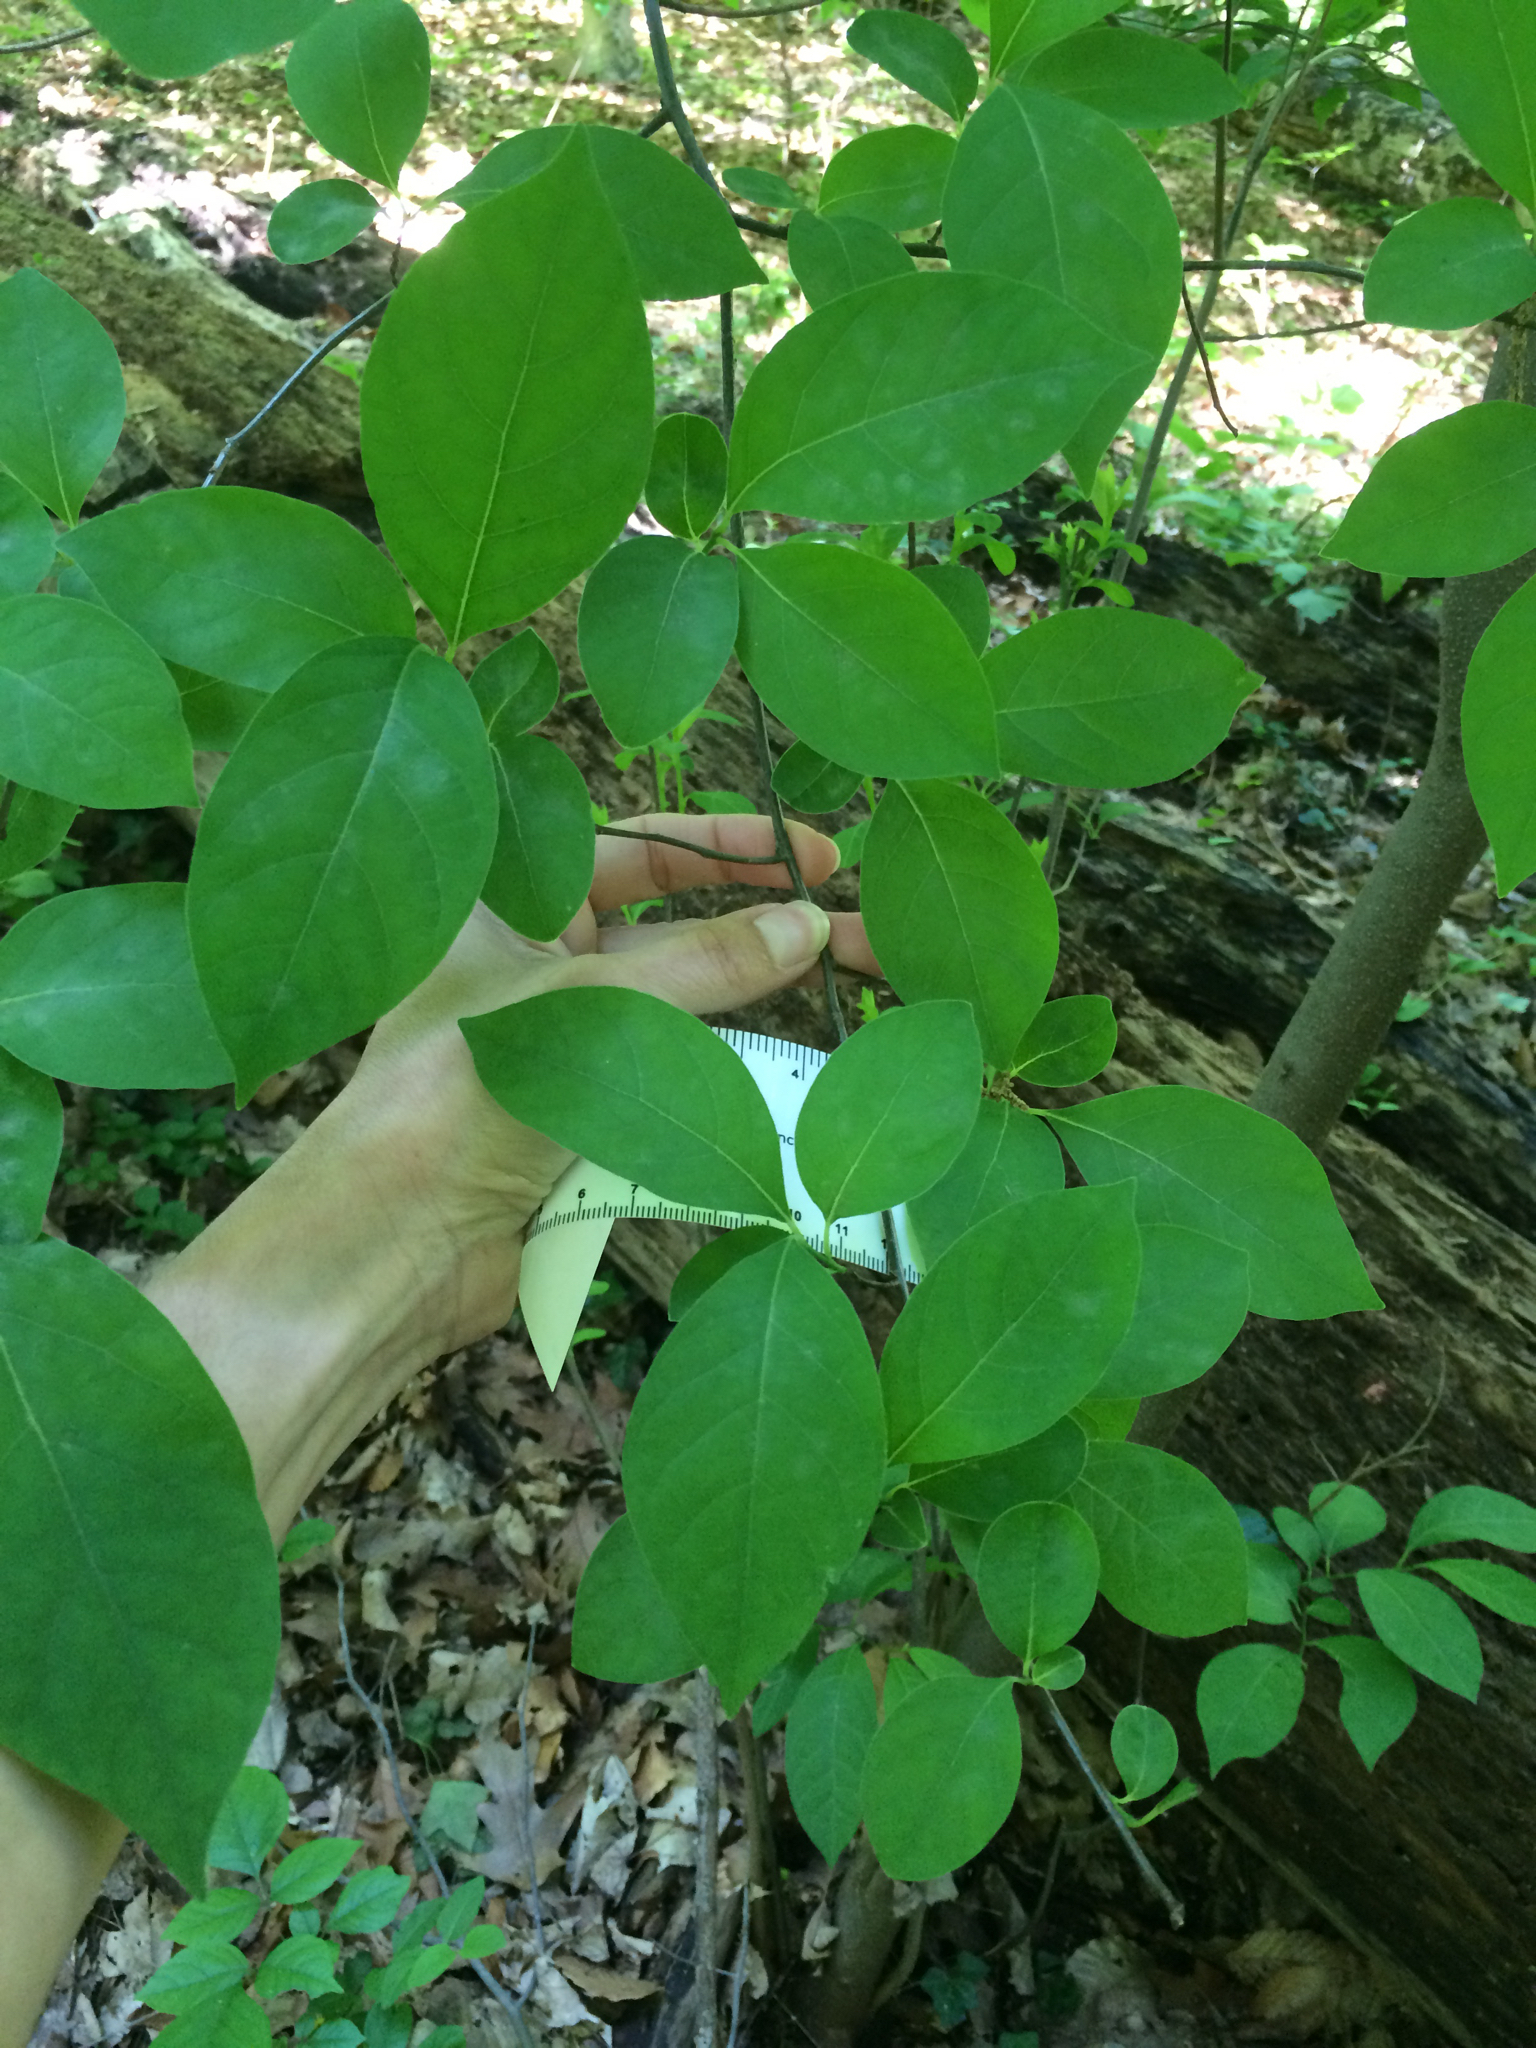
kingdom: Plantae
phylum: Tracheophyta
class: Magnoliopsida
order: Laurales
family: Lauraceae
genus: Lindera
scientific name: Lindera benzoin
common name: Spicebush
